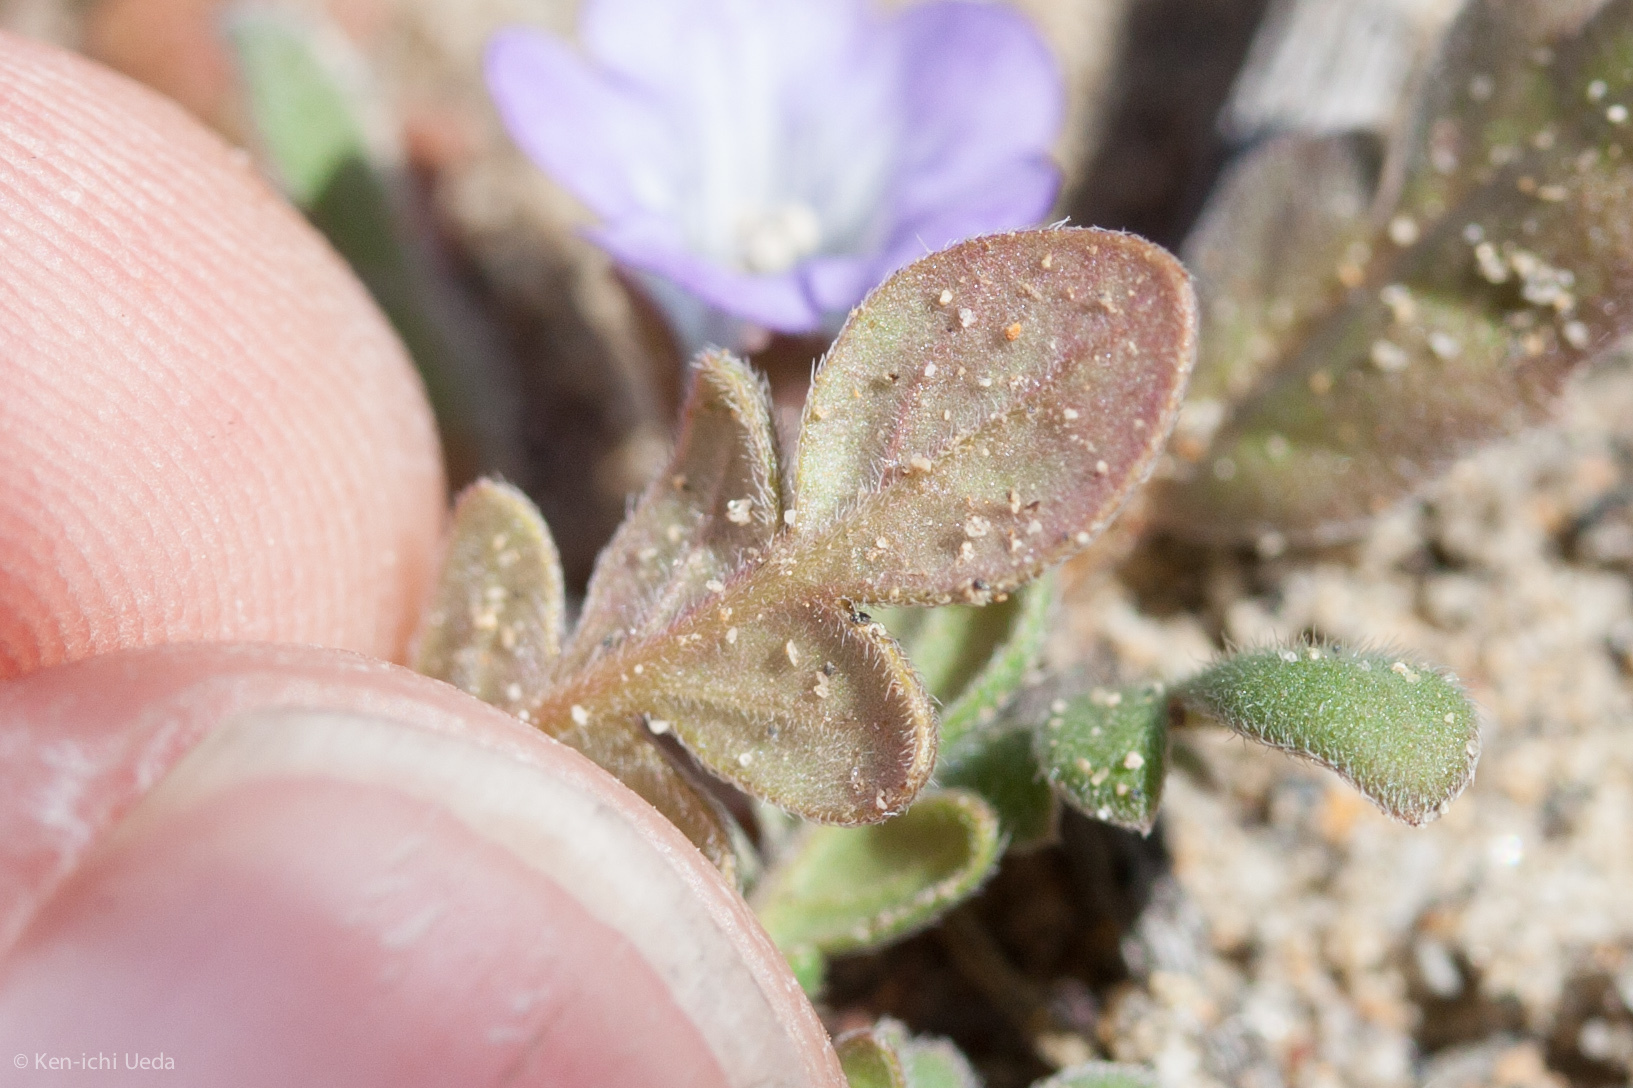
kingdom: Plantae
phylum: Tracheophyta
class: Magnoliopsida
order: Boraginales
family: Hydrophyllaceae
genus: Phacelia
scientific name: Phacelia douglasii
